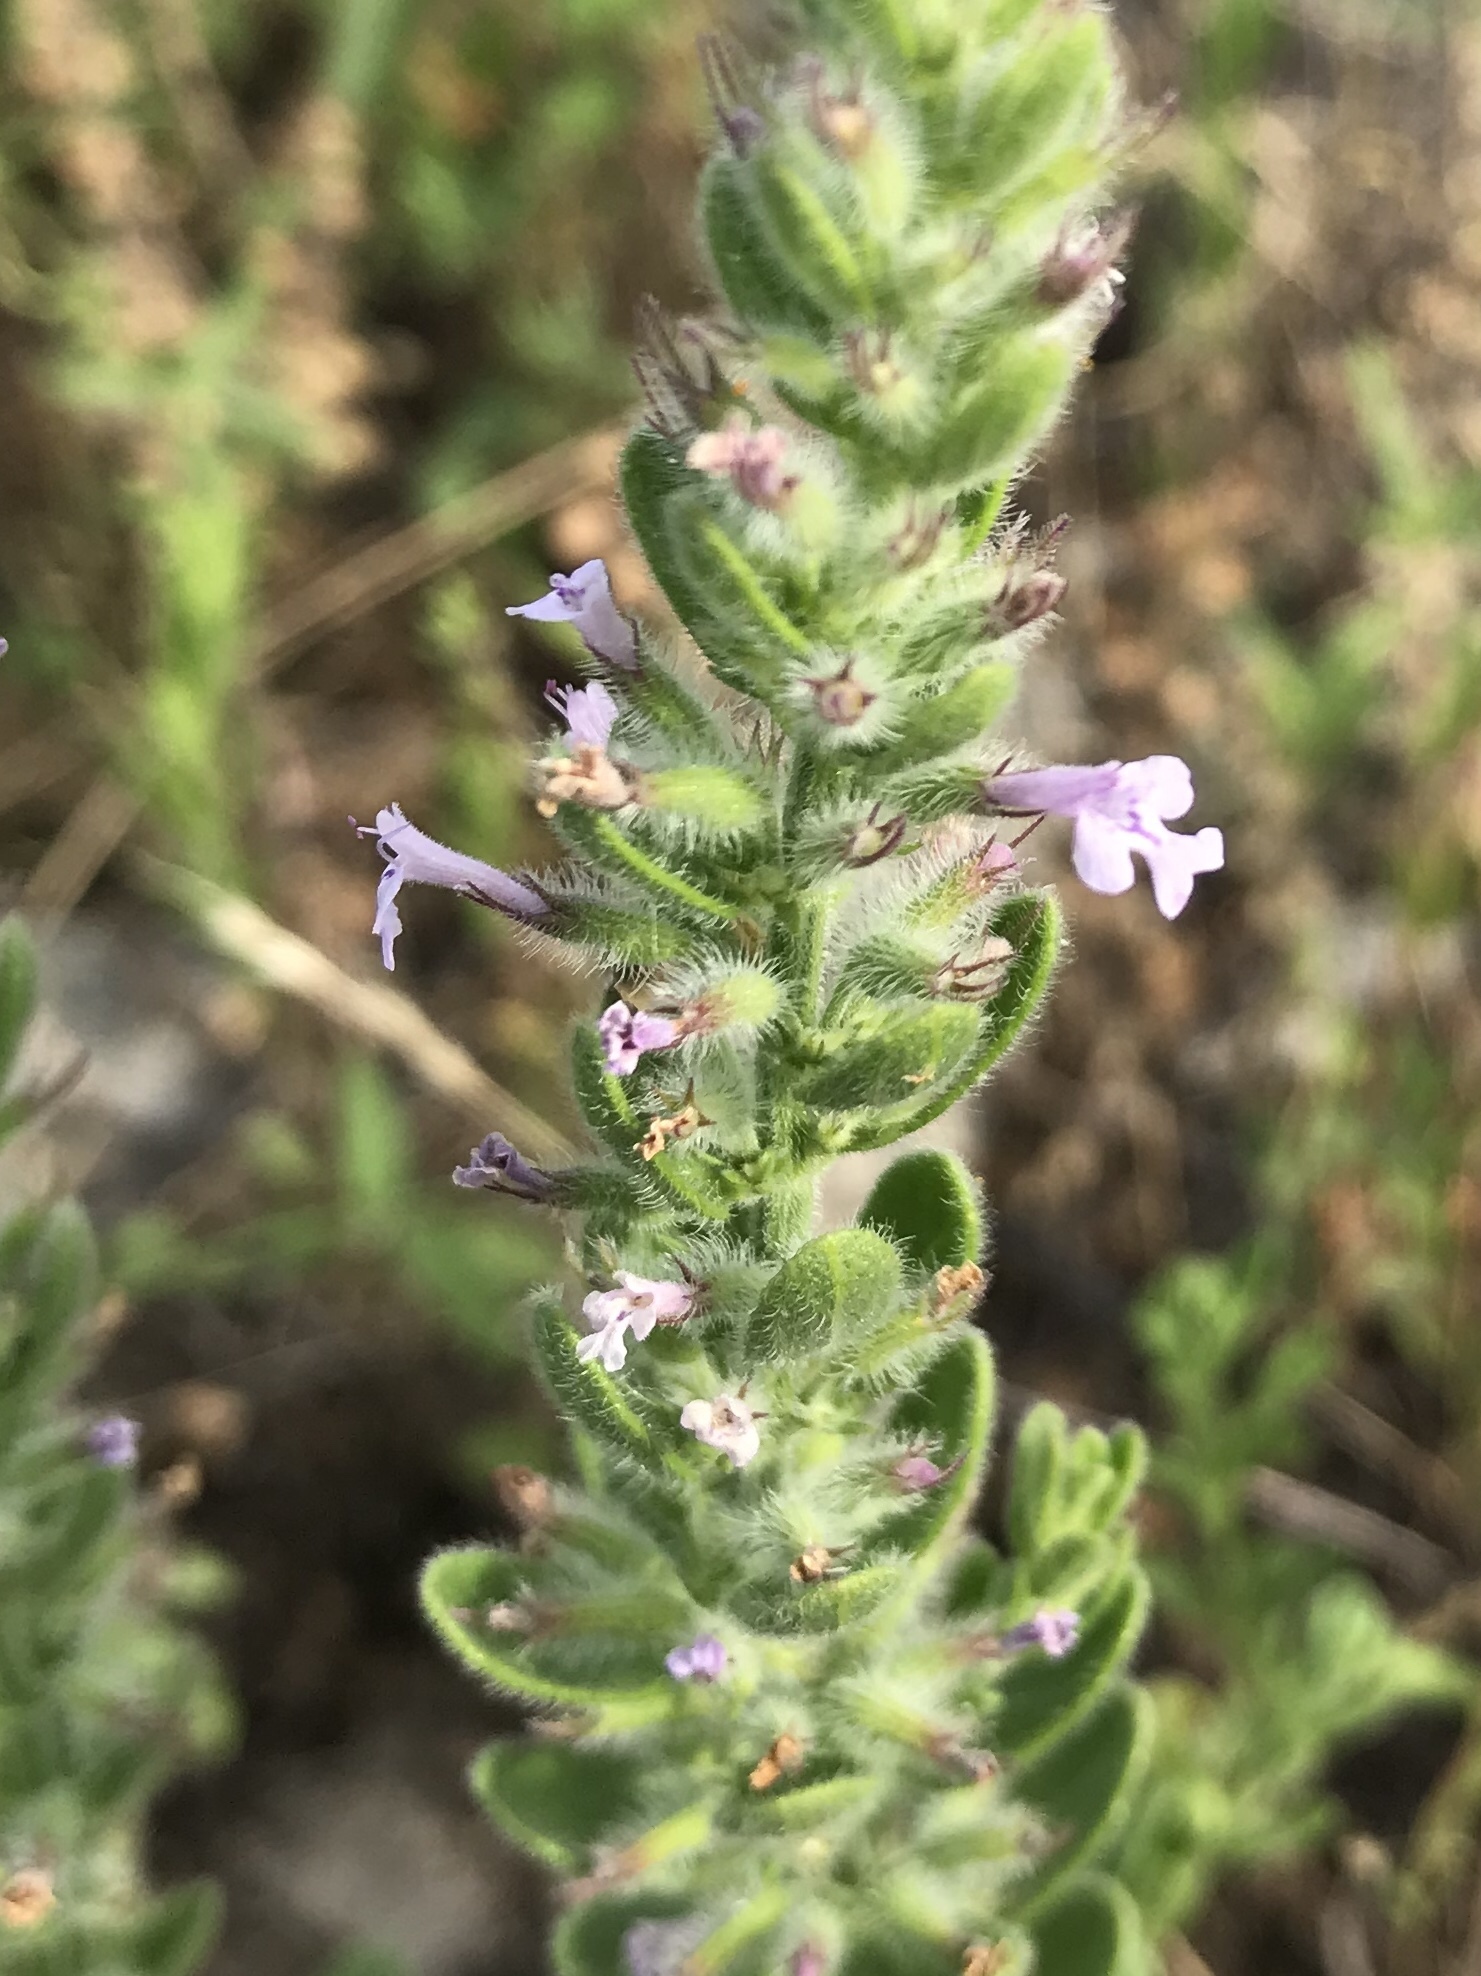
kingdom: Plantae
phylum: Tracheophyta
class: Magnoliopsida
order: Lamiales
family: Lamiaceae
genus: Hedeoma
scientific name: Hedeoma reverchonii
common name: Reverchon's false penny-royal
